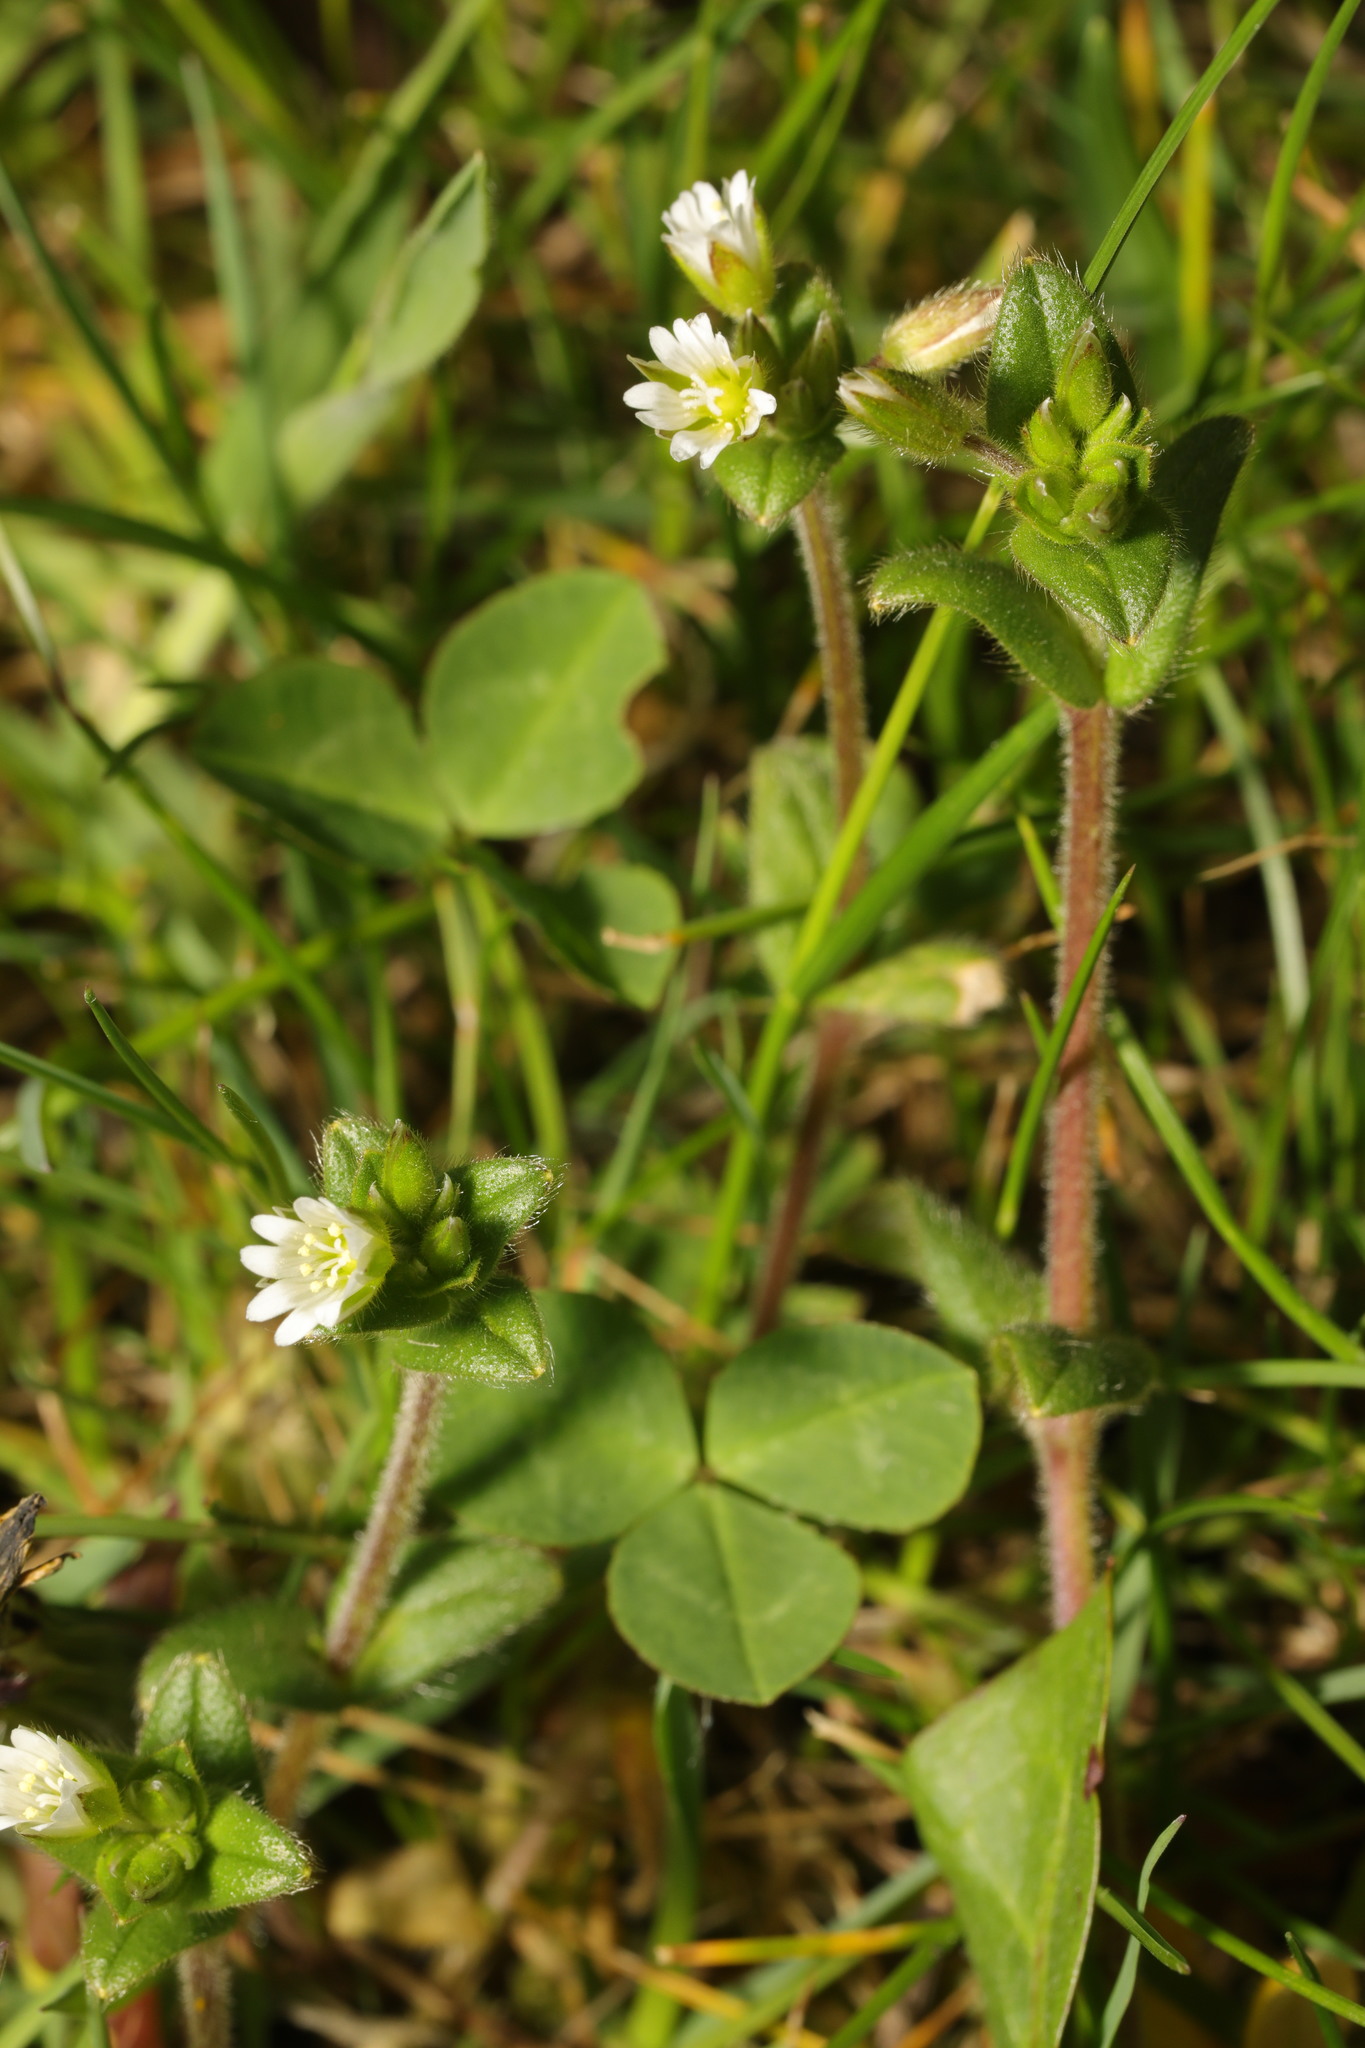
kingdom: Plantae
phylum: Tracheophyta
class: Magnoliopsida
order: Caryophyllales
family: Caryophyllaceae
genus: Cerastium
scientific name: Cerastium fontanum
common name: Common mouse-ear
